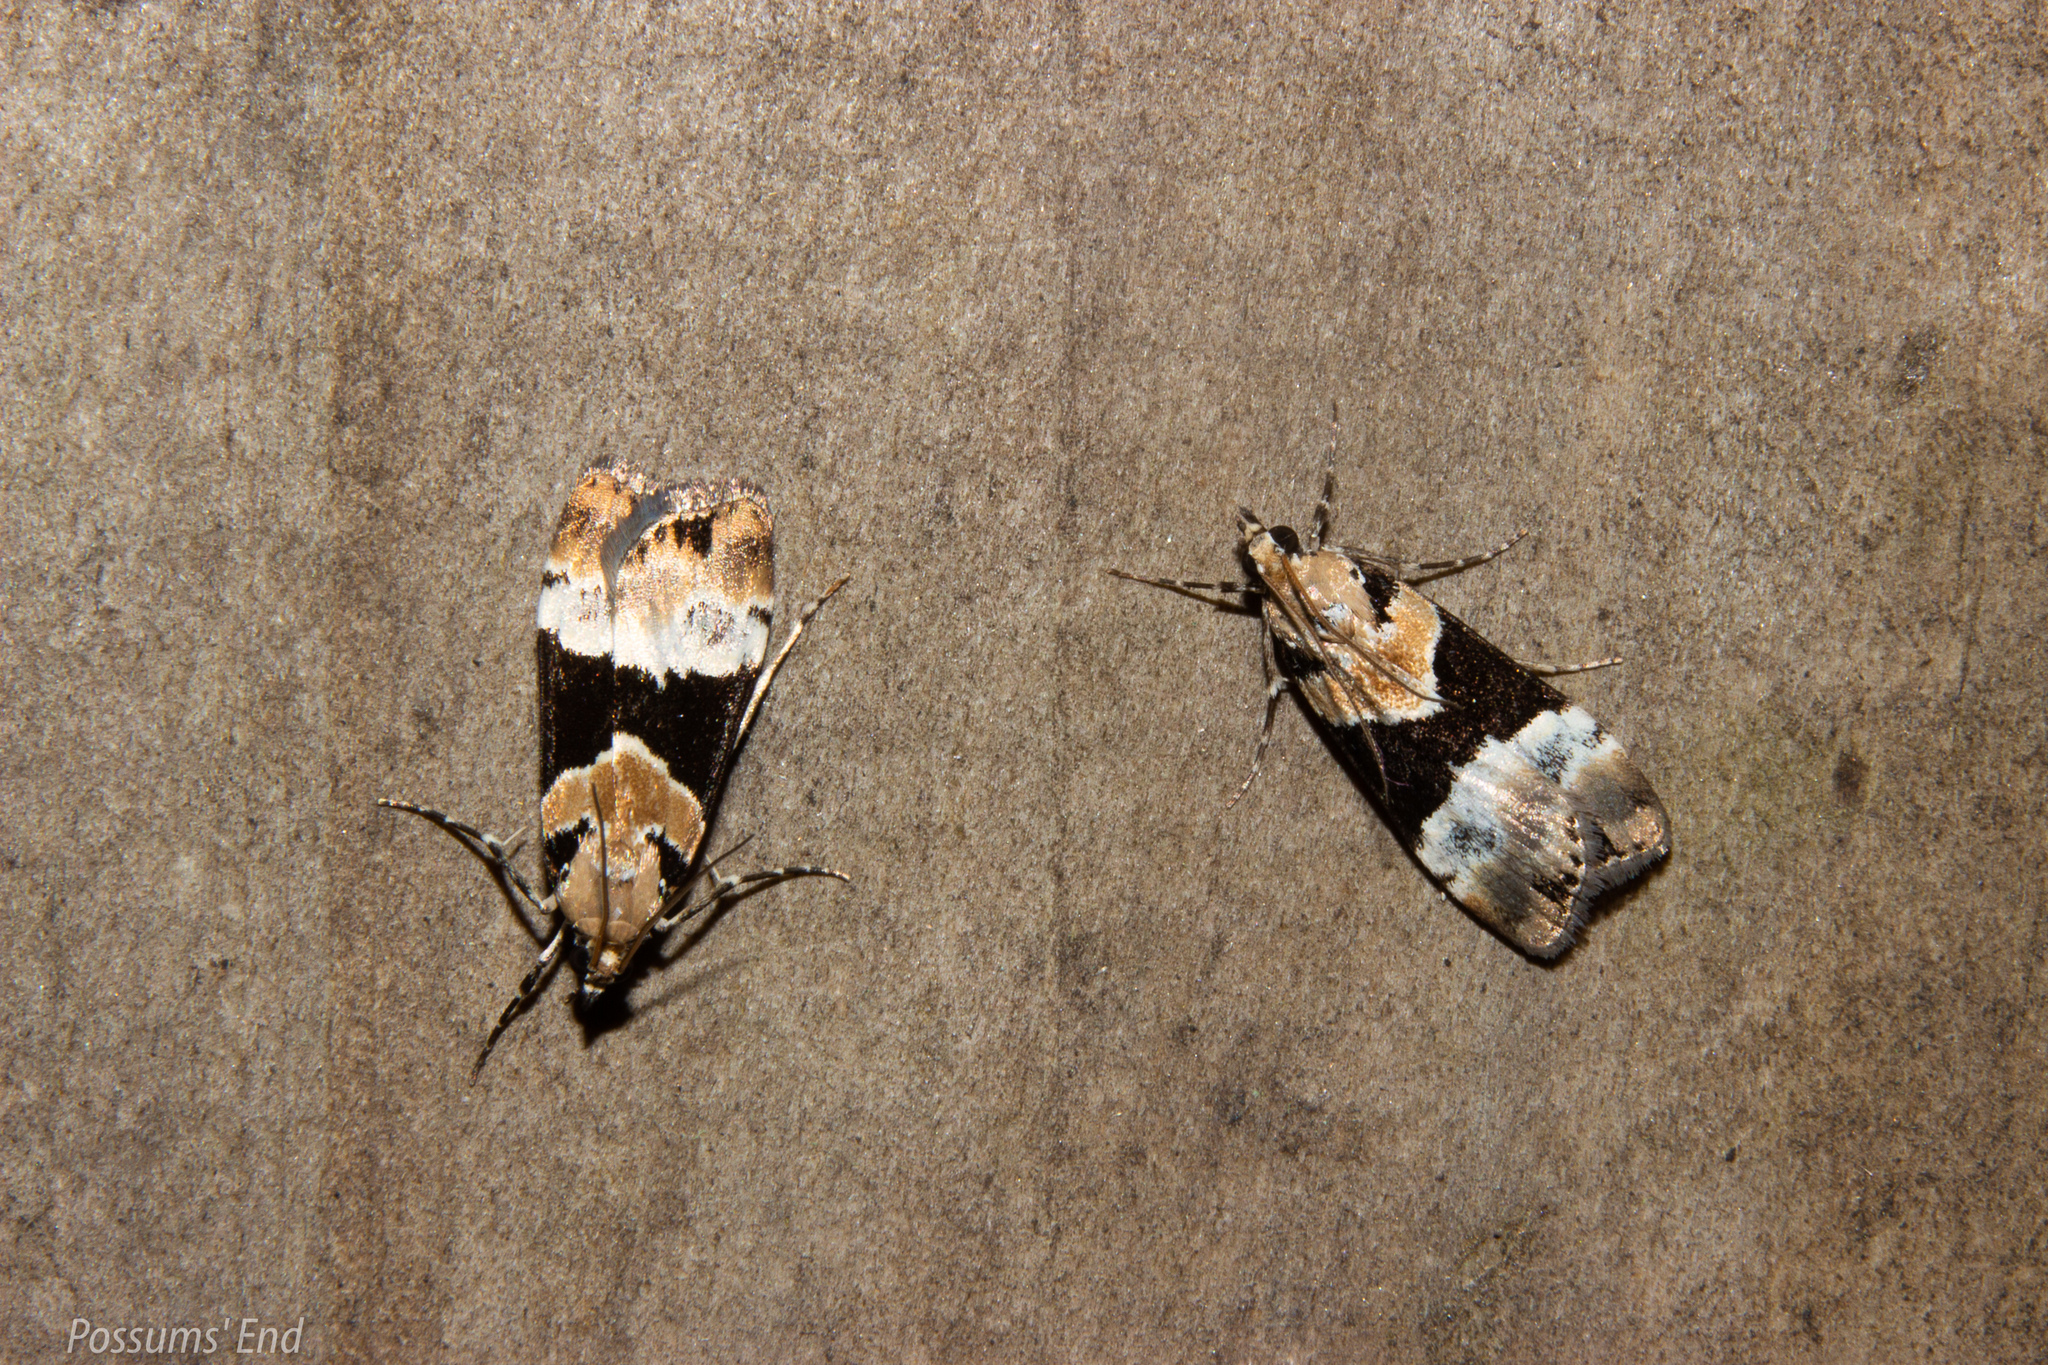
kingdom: Animalia
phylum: Arthropoda
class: Insecta
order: Lepidoptera
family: Crambidae
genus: Eudonia
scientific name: Eudonia aspidota
